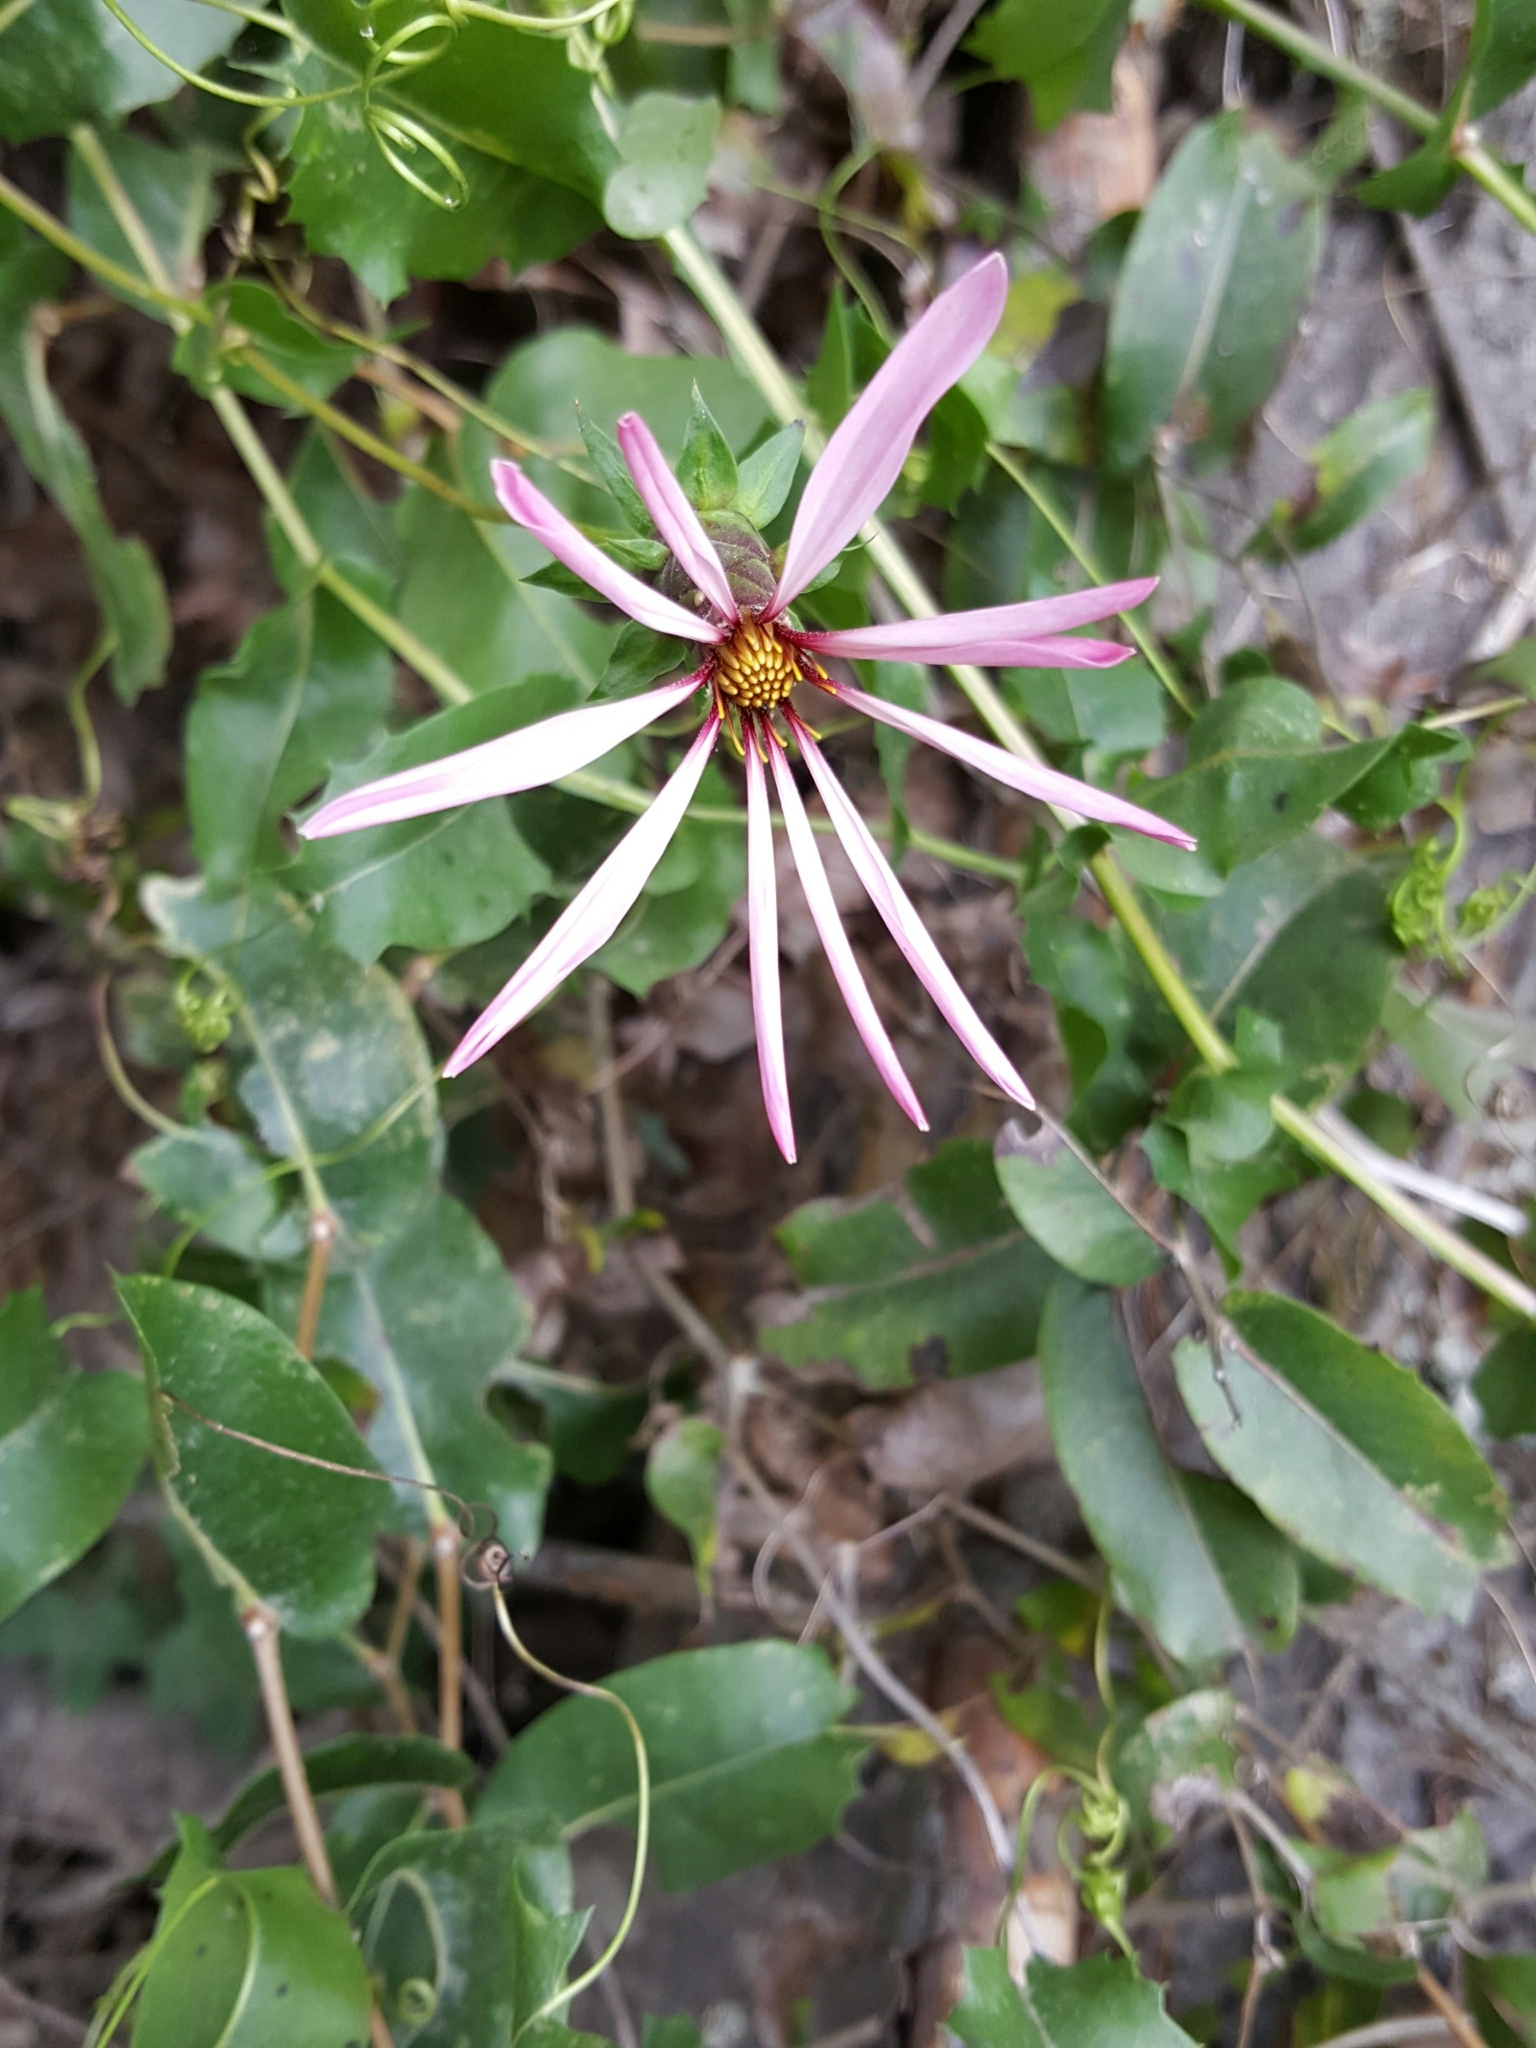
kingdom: Plantae
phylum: Tracheophyta
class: Magnoliopsida
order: Asterales
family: Asteraceae
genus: Mutisia
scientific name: Mutisia spinosa
